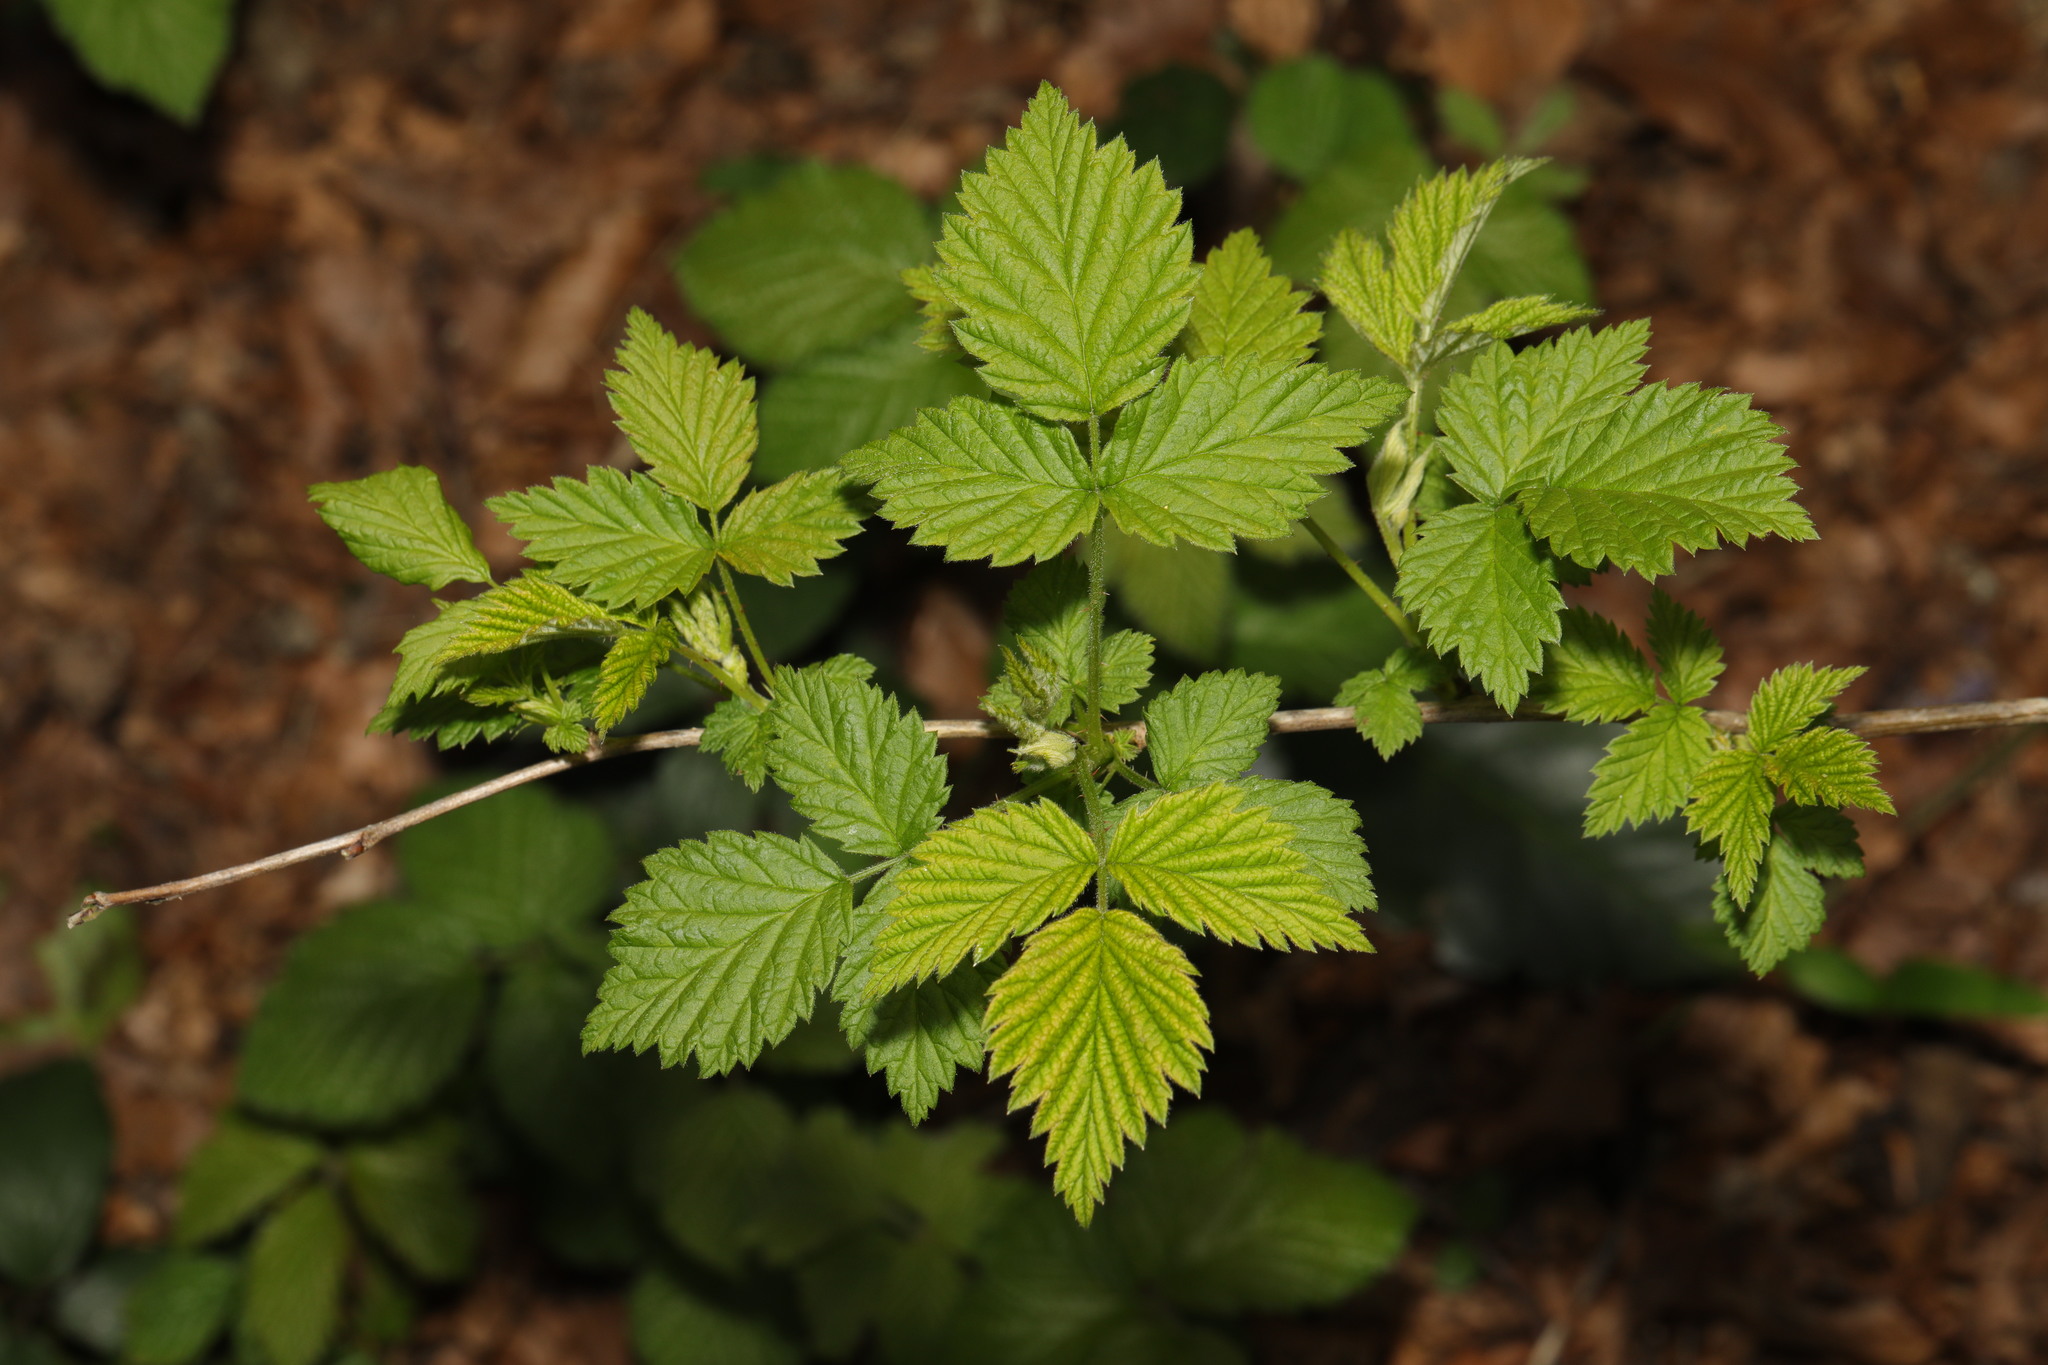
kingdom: Plantae
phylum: Tracheophyta
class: Magnoliopsida
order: Rosales
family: Rosaceae
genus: Rubus
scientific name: Rubus idaeus
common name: Raspberry
